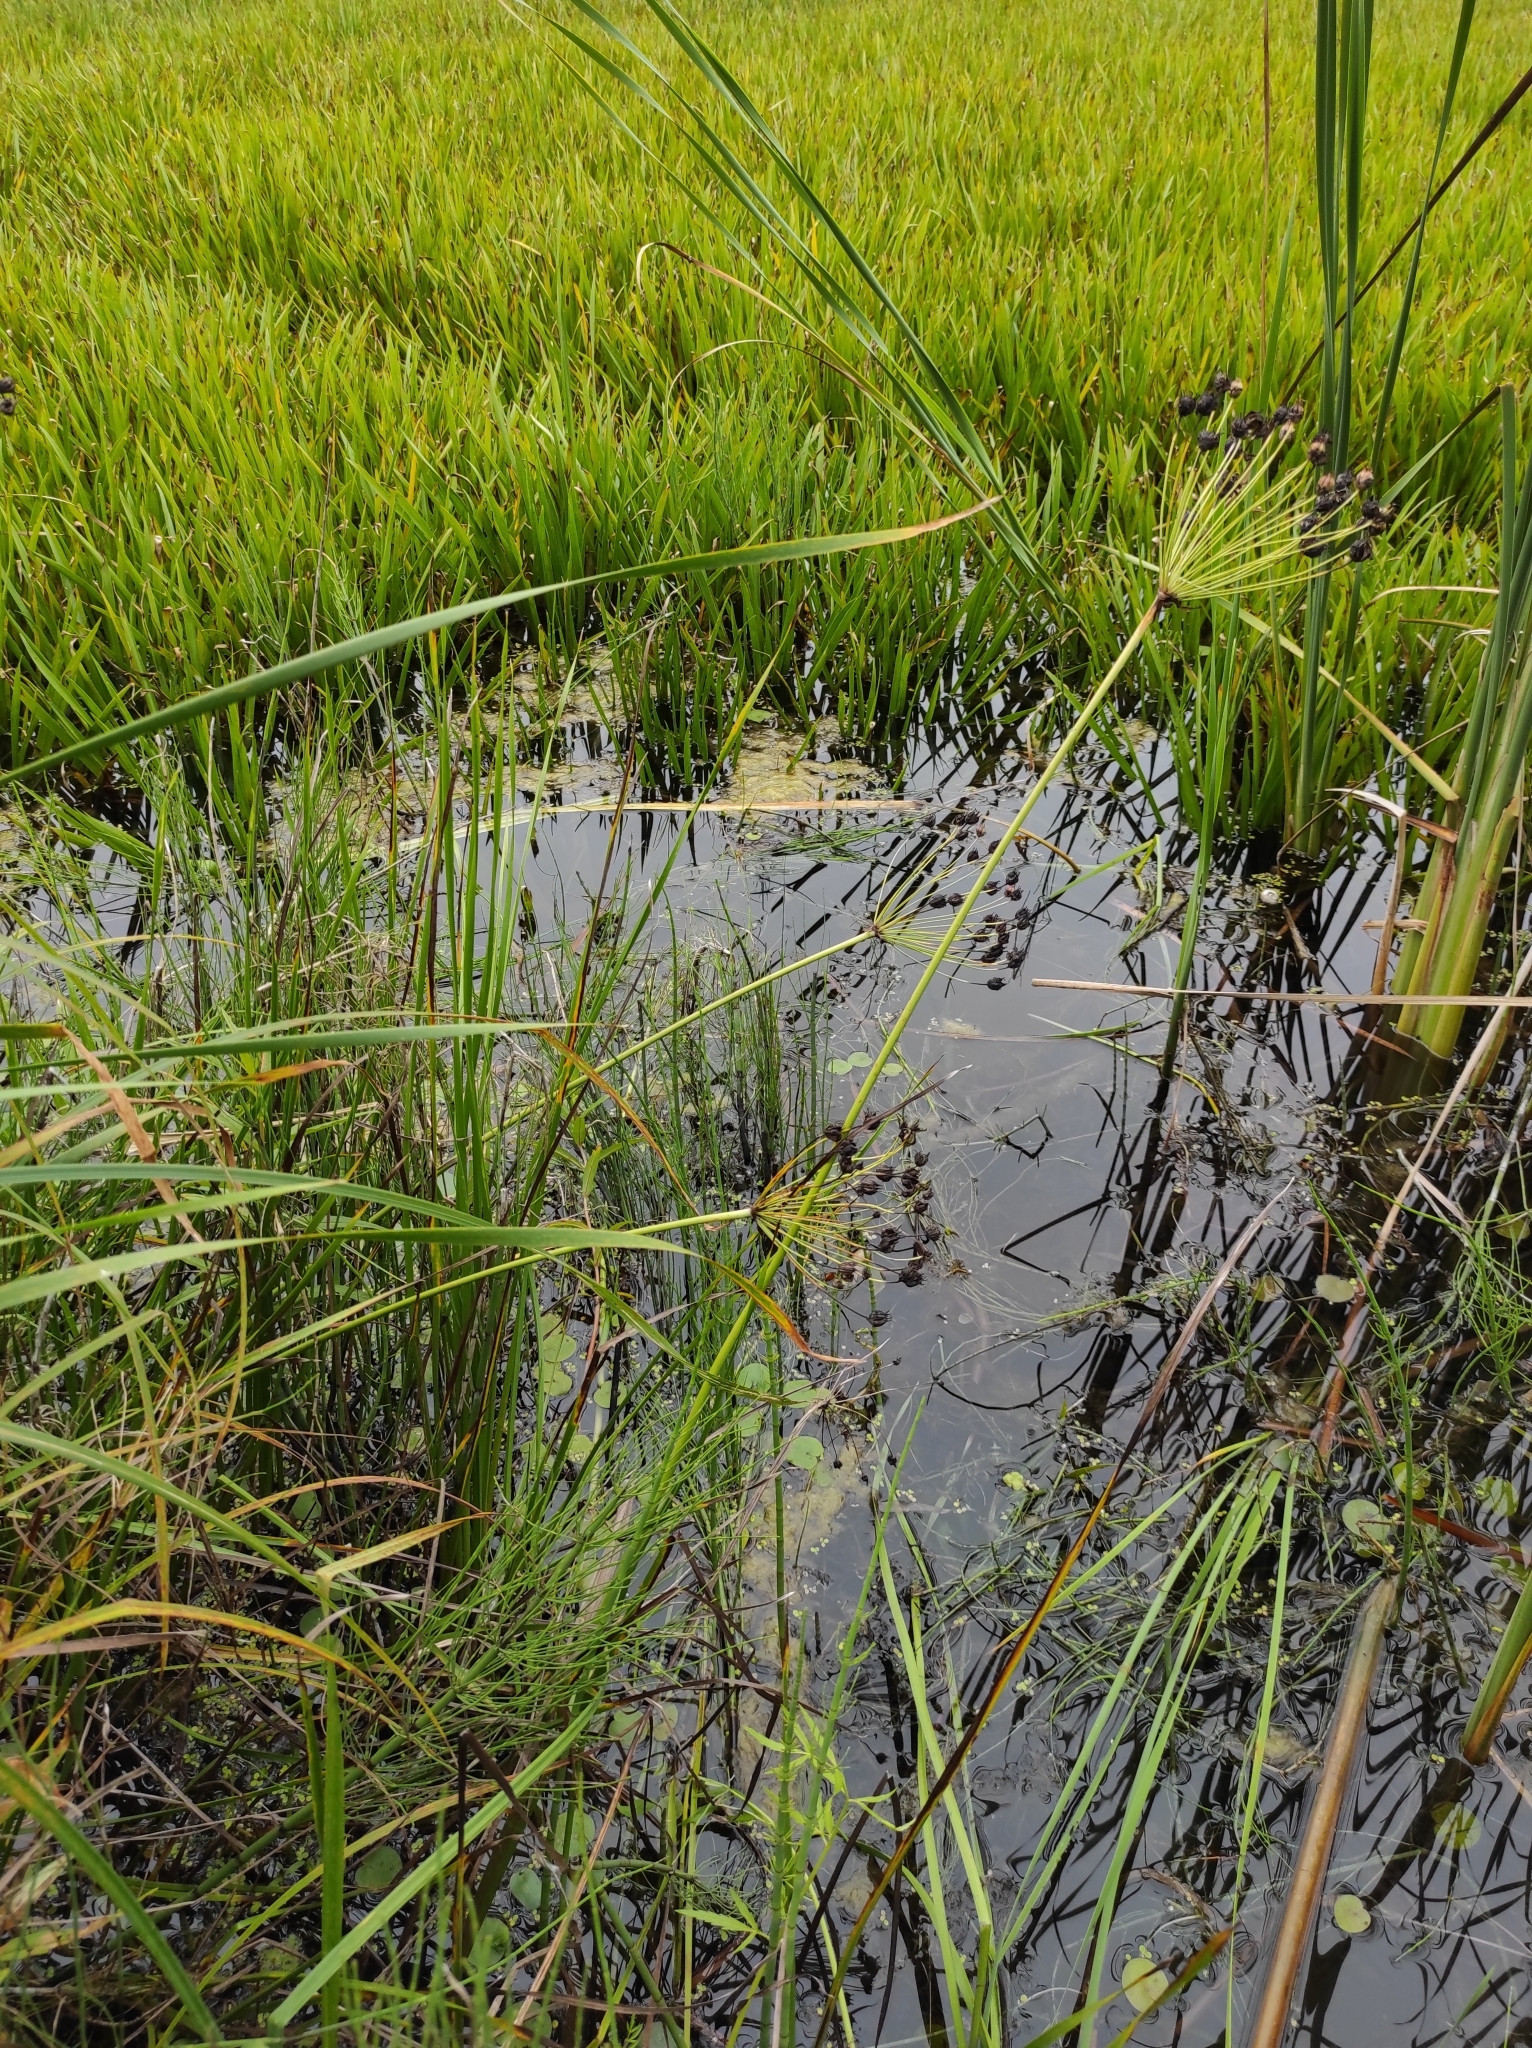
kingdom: Plantae
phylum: Tracheophyta
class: Liliopsida
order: Alismatales
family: Butomaceae
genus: Butomus
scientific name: Butomus umbellatus
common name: Flowering-rush
